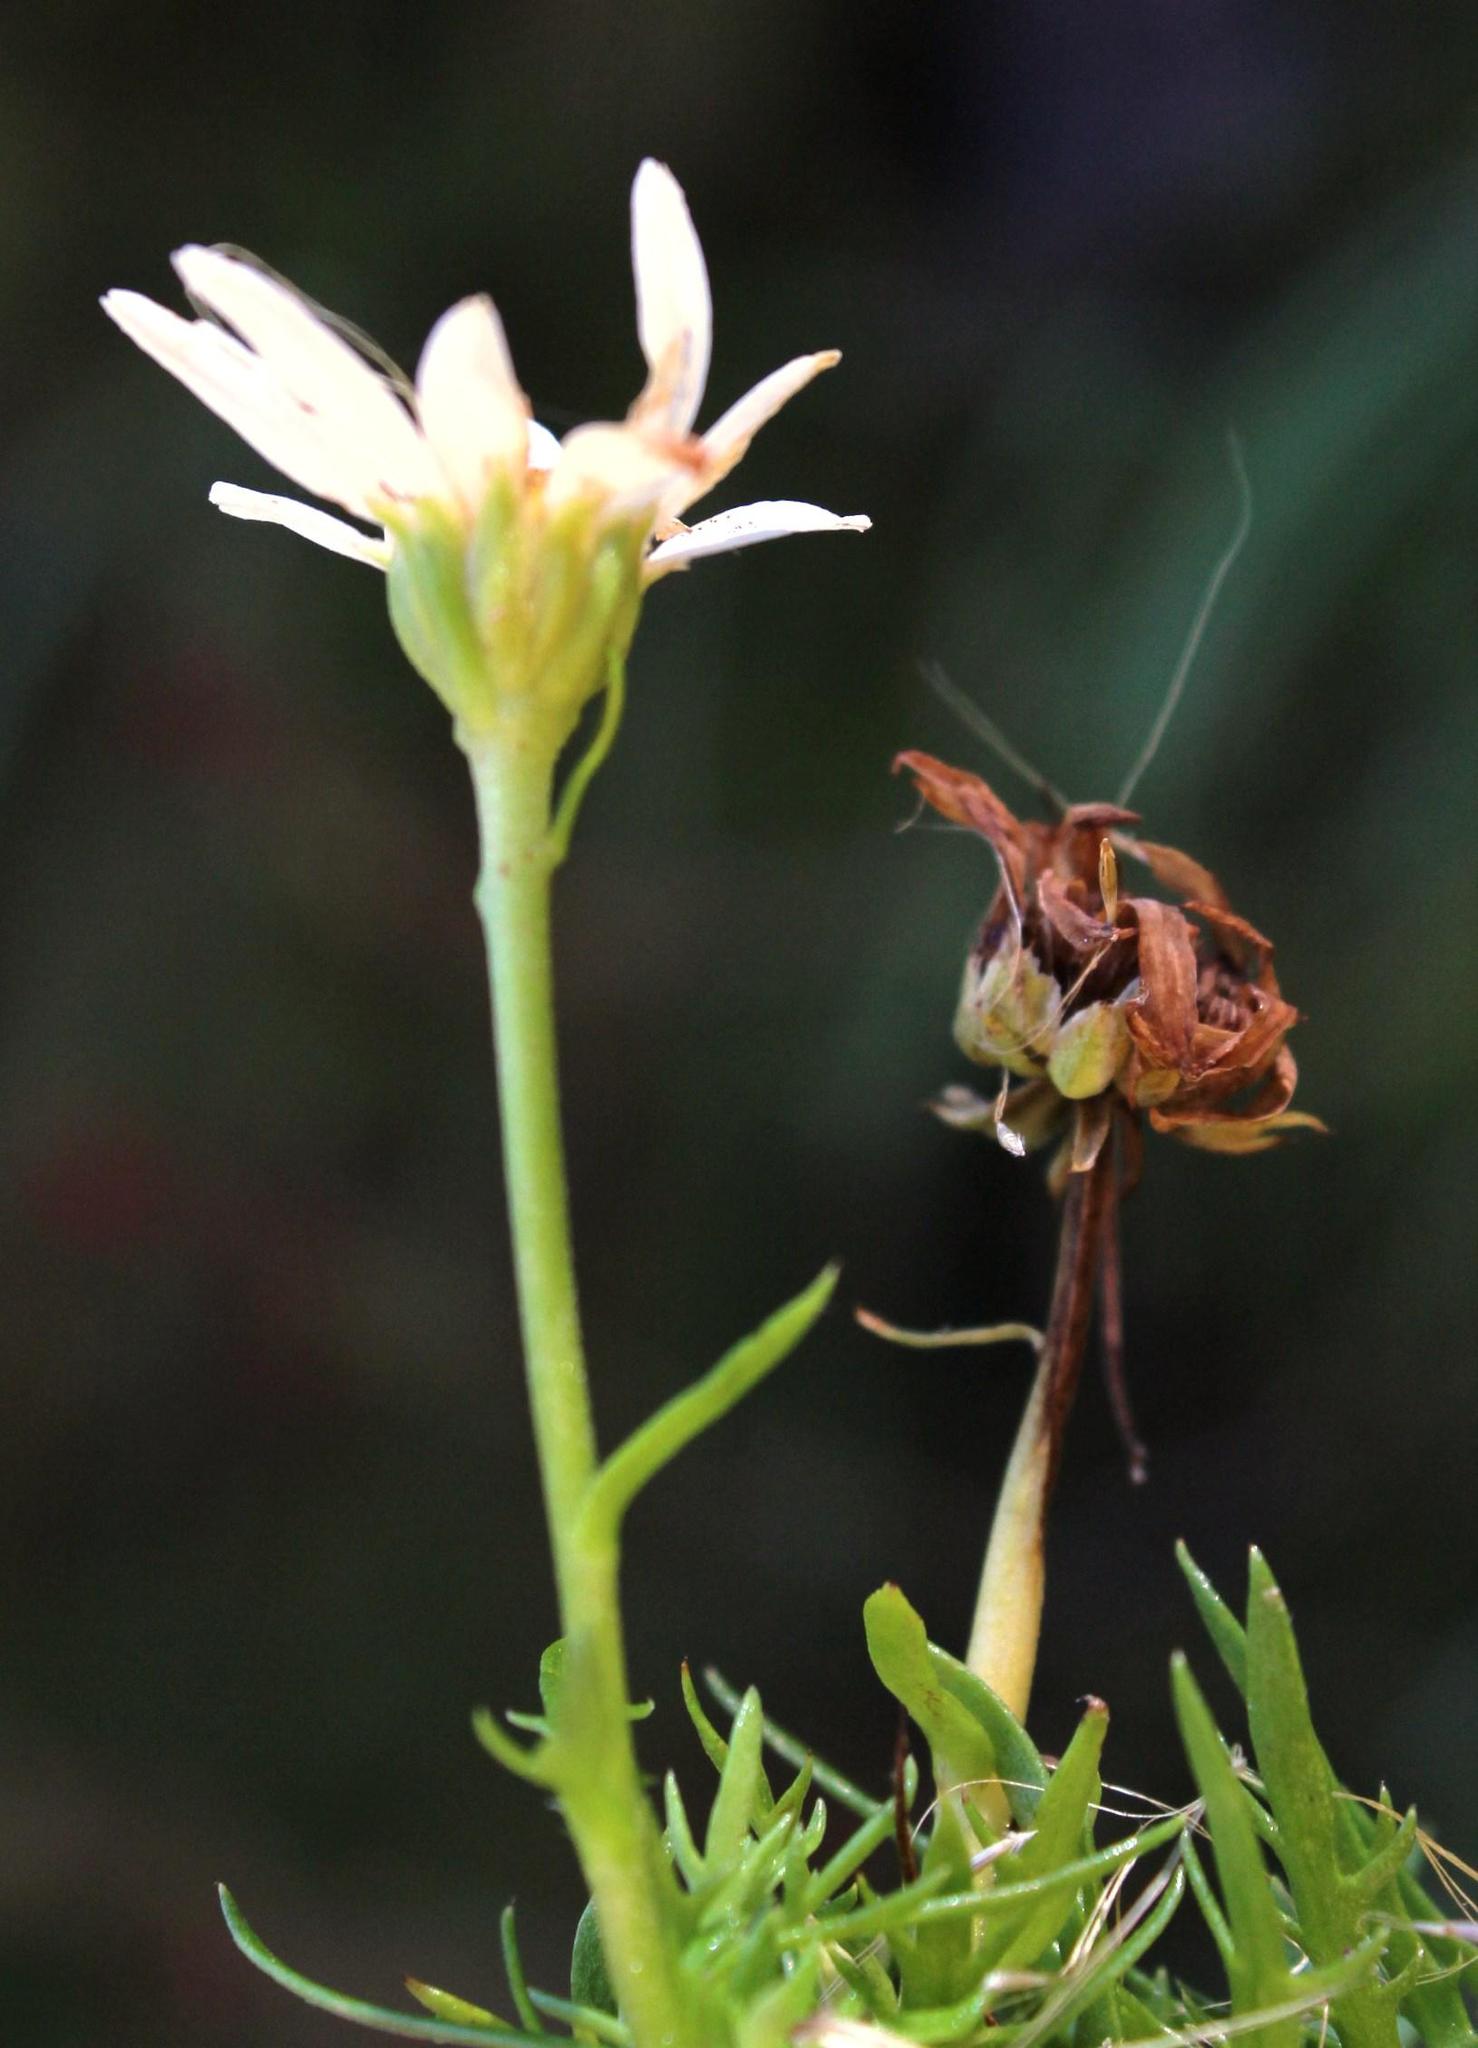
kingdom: Plantae
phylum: Tracheophyta
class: Magnoliopsida
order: Asterales
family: Asteraceae
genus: Osmitopsis
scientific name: Osmitopsis pinnatifida
